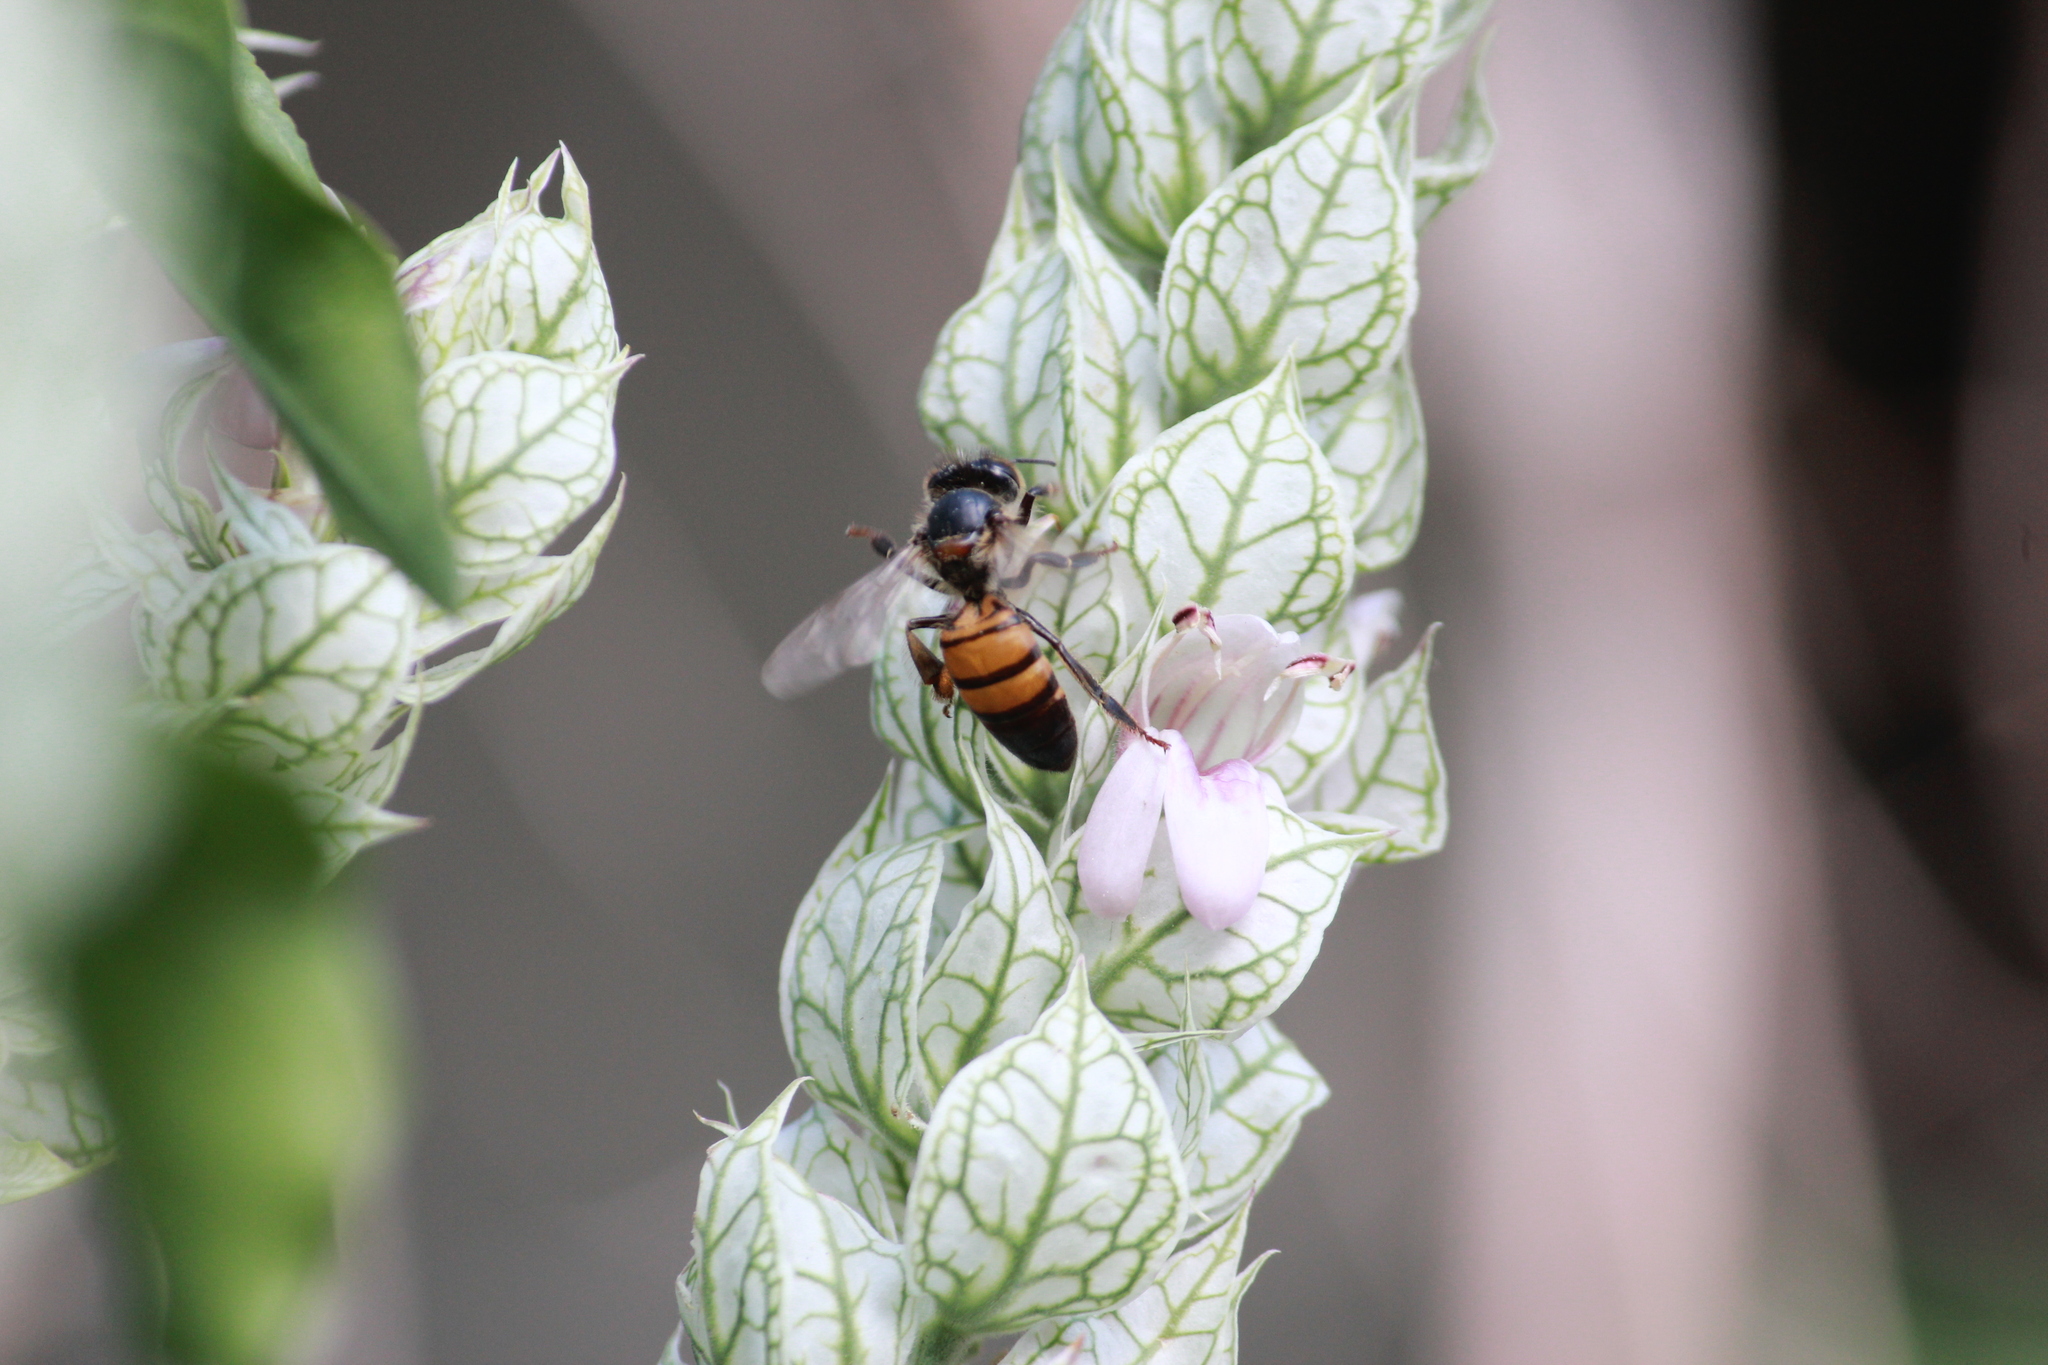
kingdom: Animalia
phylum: Arthropoda
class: Insecta
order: Hymenoptera
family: Apidae
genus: Apis
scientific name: Apis mellifera
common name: Honey bee
